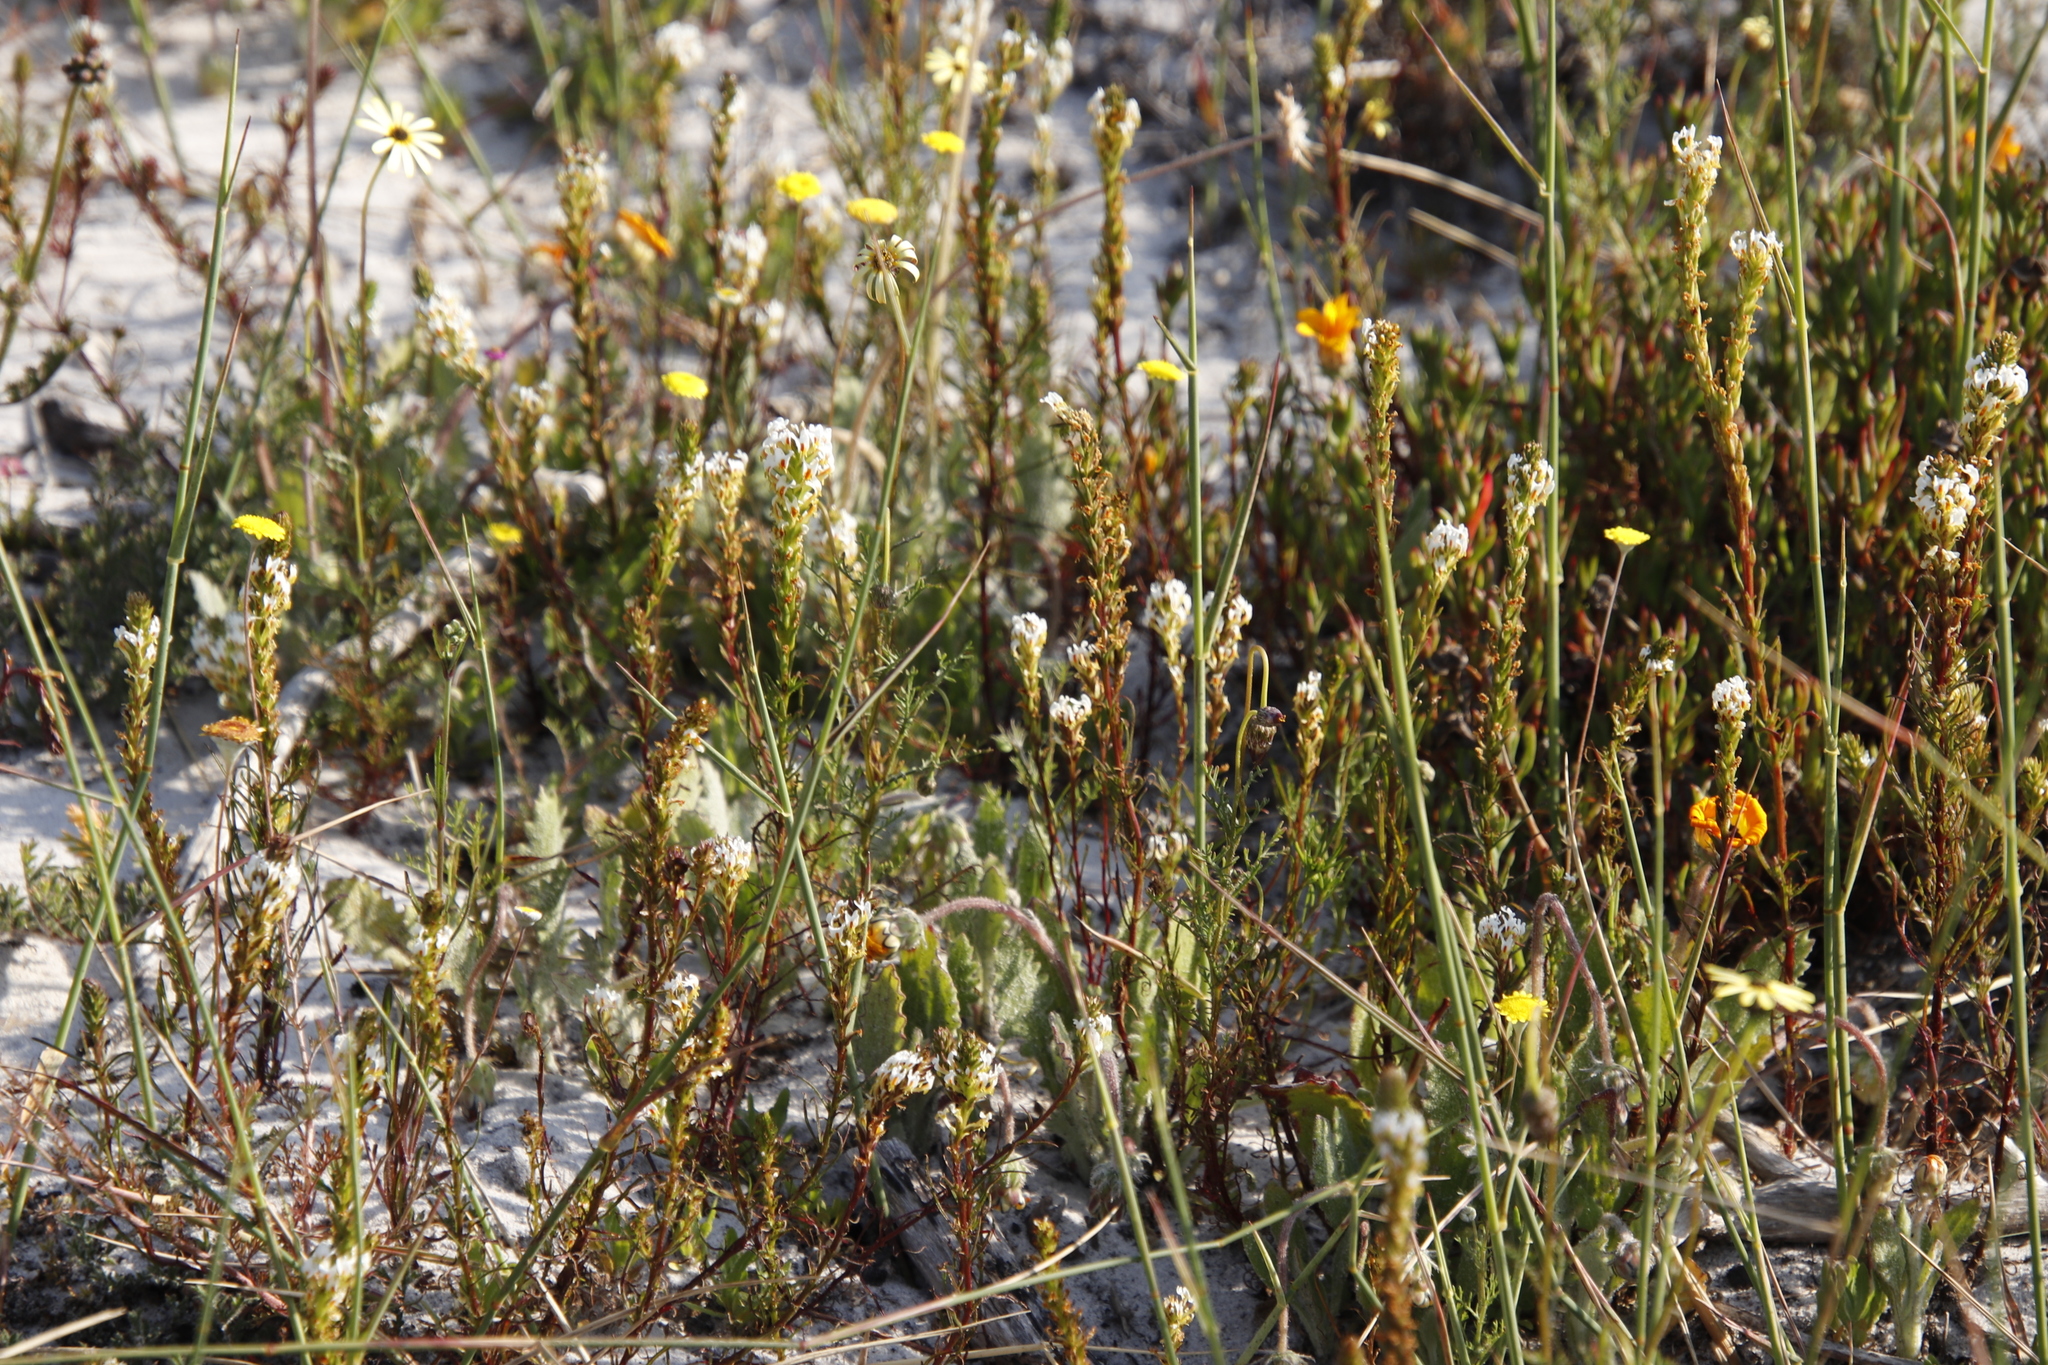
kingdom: Plantae
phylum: Tracheophyta
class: Magnoliopsida
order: Lamiales
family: Scrophulariaceae
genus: Hebenstretia
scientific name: Hebenstretia repens
